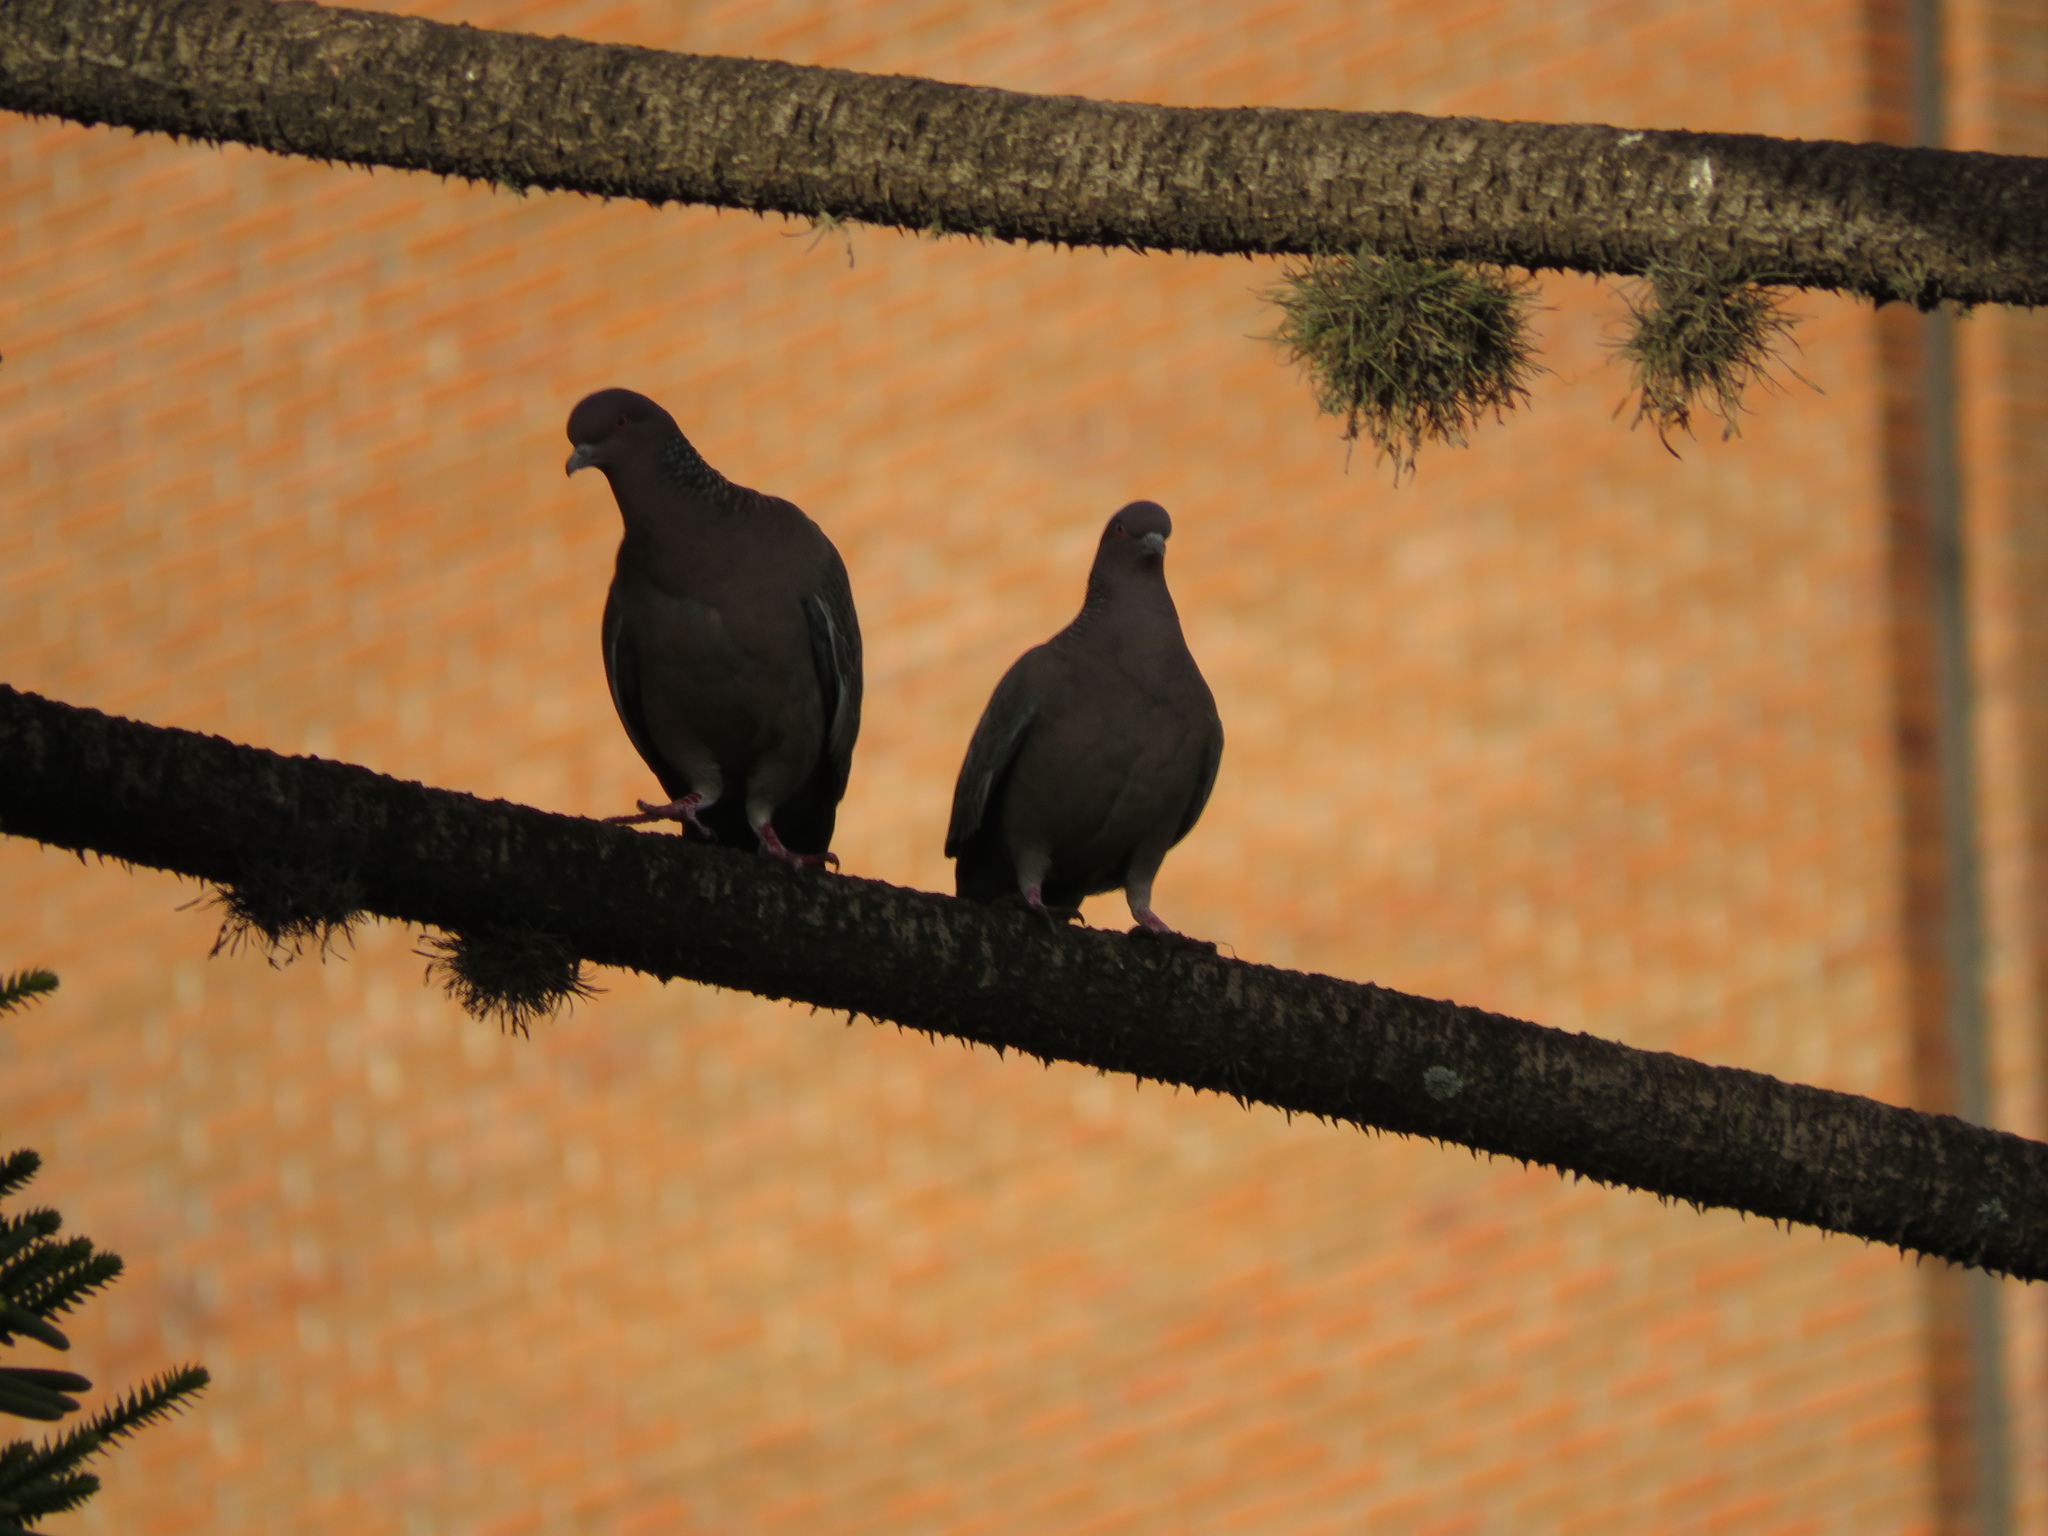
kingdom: Animalia
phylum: Chordata
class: Aves
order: Columbiformes
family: Columbidae
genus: Patagioenas
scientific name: Patagioenas picazuro
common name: Picazuro pigeon
